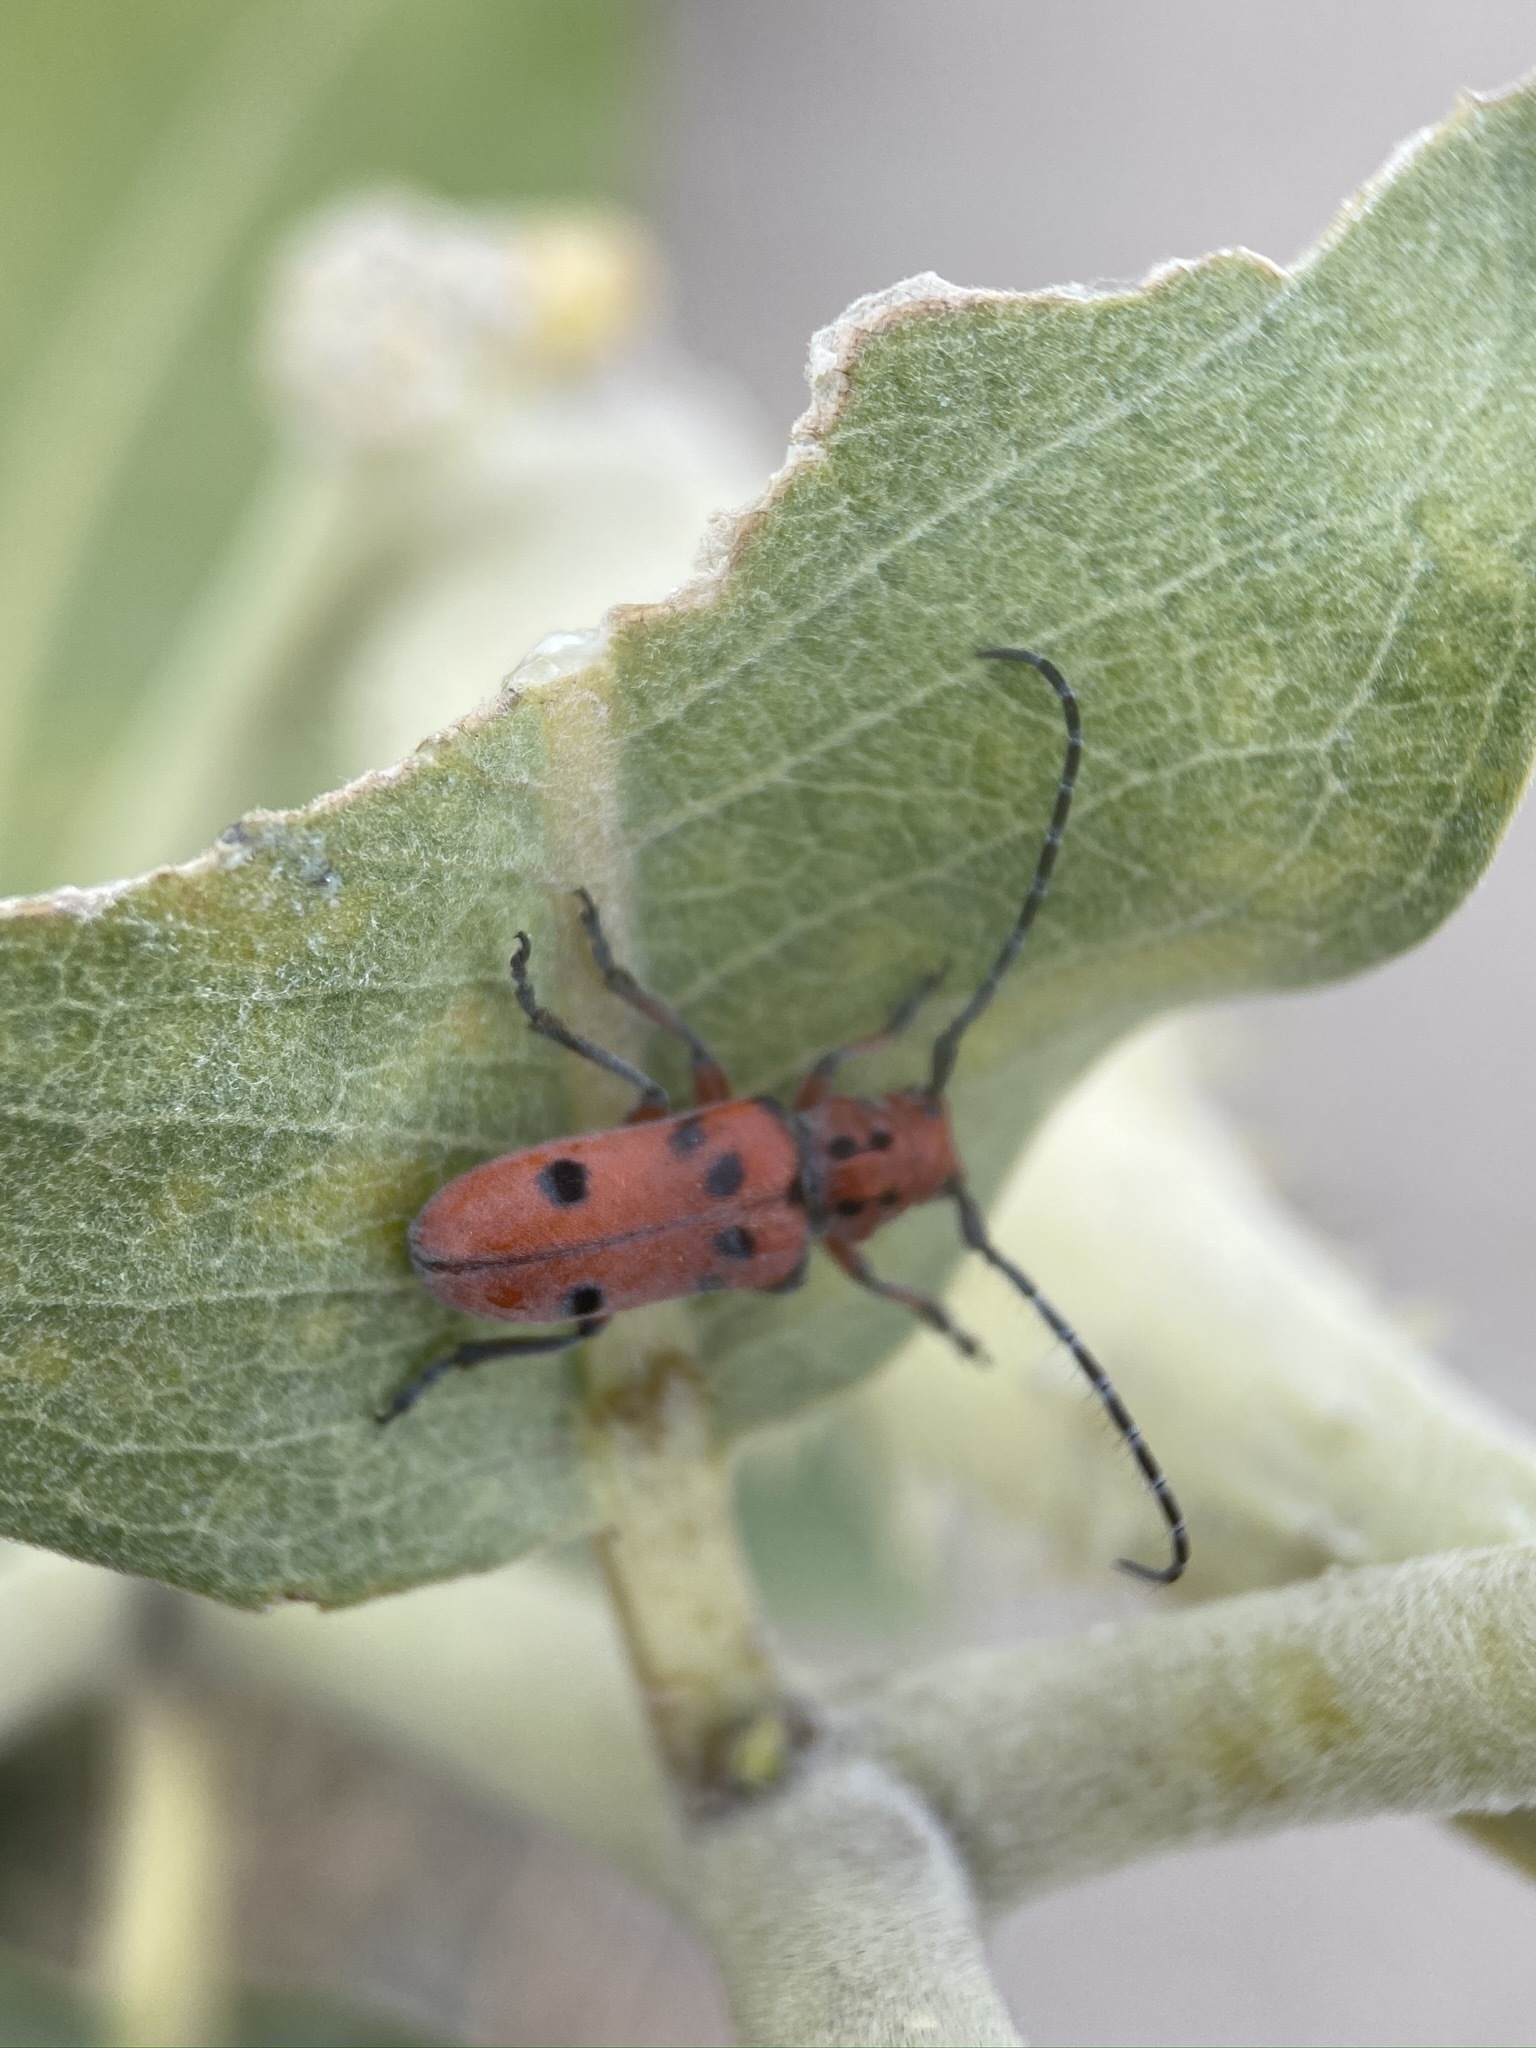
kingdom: Animalia
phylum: Arthropoda
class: Insecta
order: Coleoptera
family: Cerambycidae
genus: Tetraopes
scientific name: Tetraopes femoratus
